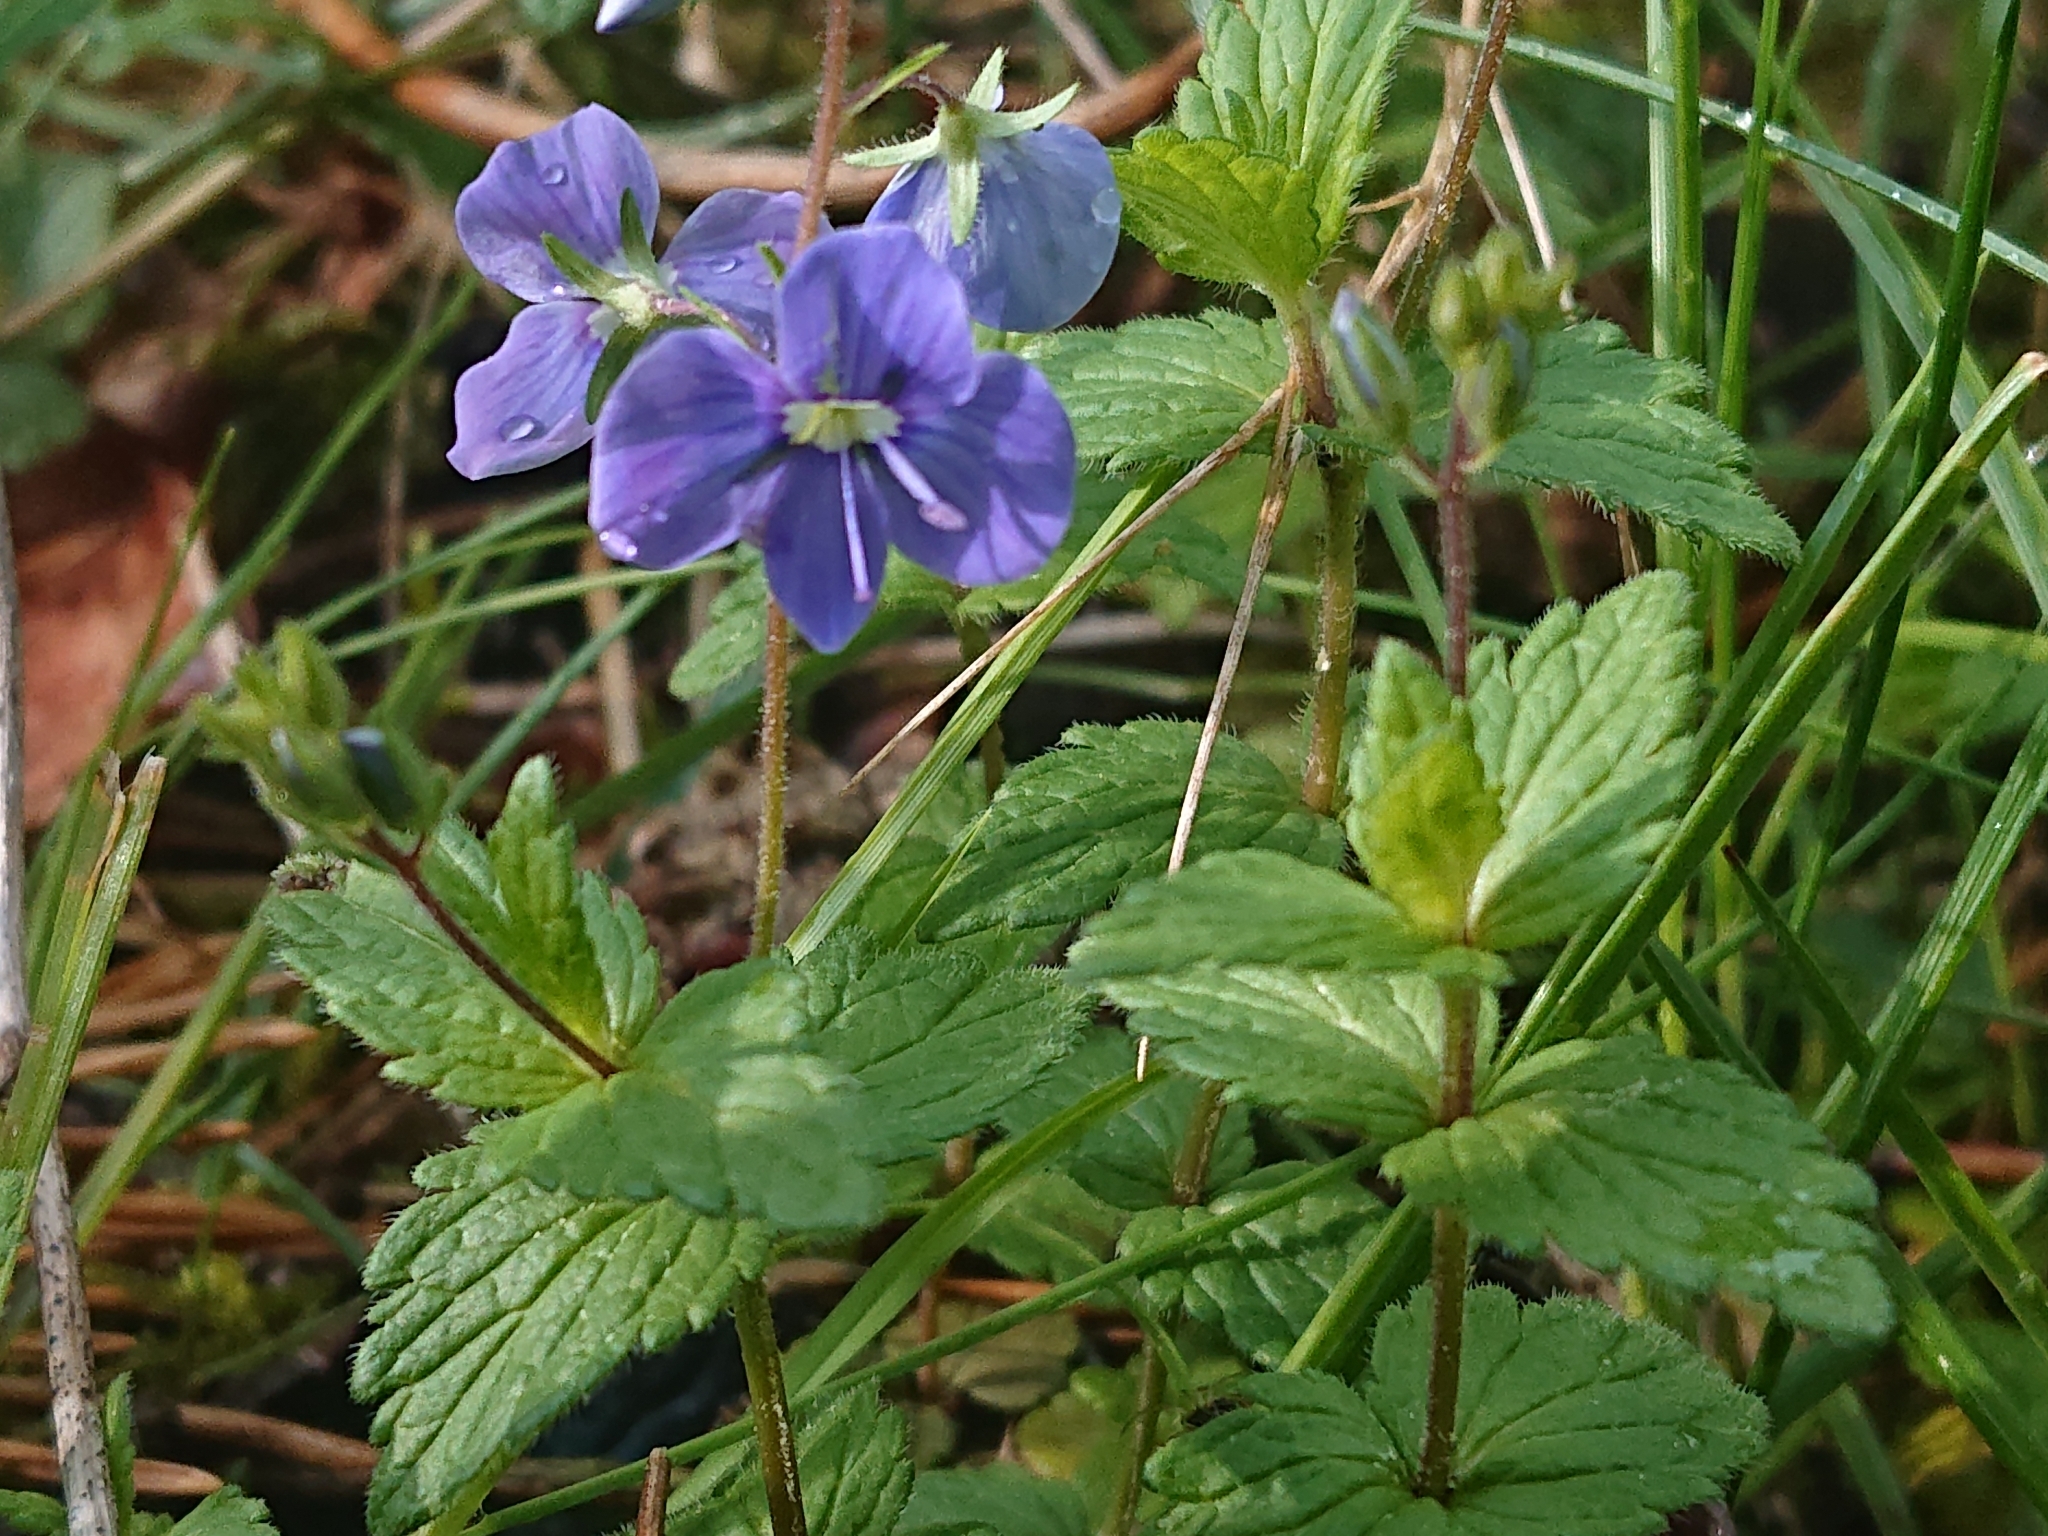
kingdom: Plantae
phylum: Tracheophyta
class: Magnoliopsida
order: Lamiales
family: Plantaginaceae
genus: Veronica
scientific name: Veronica chamaedrys
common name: Germander speedwell
